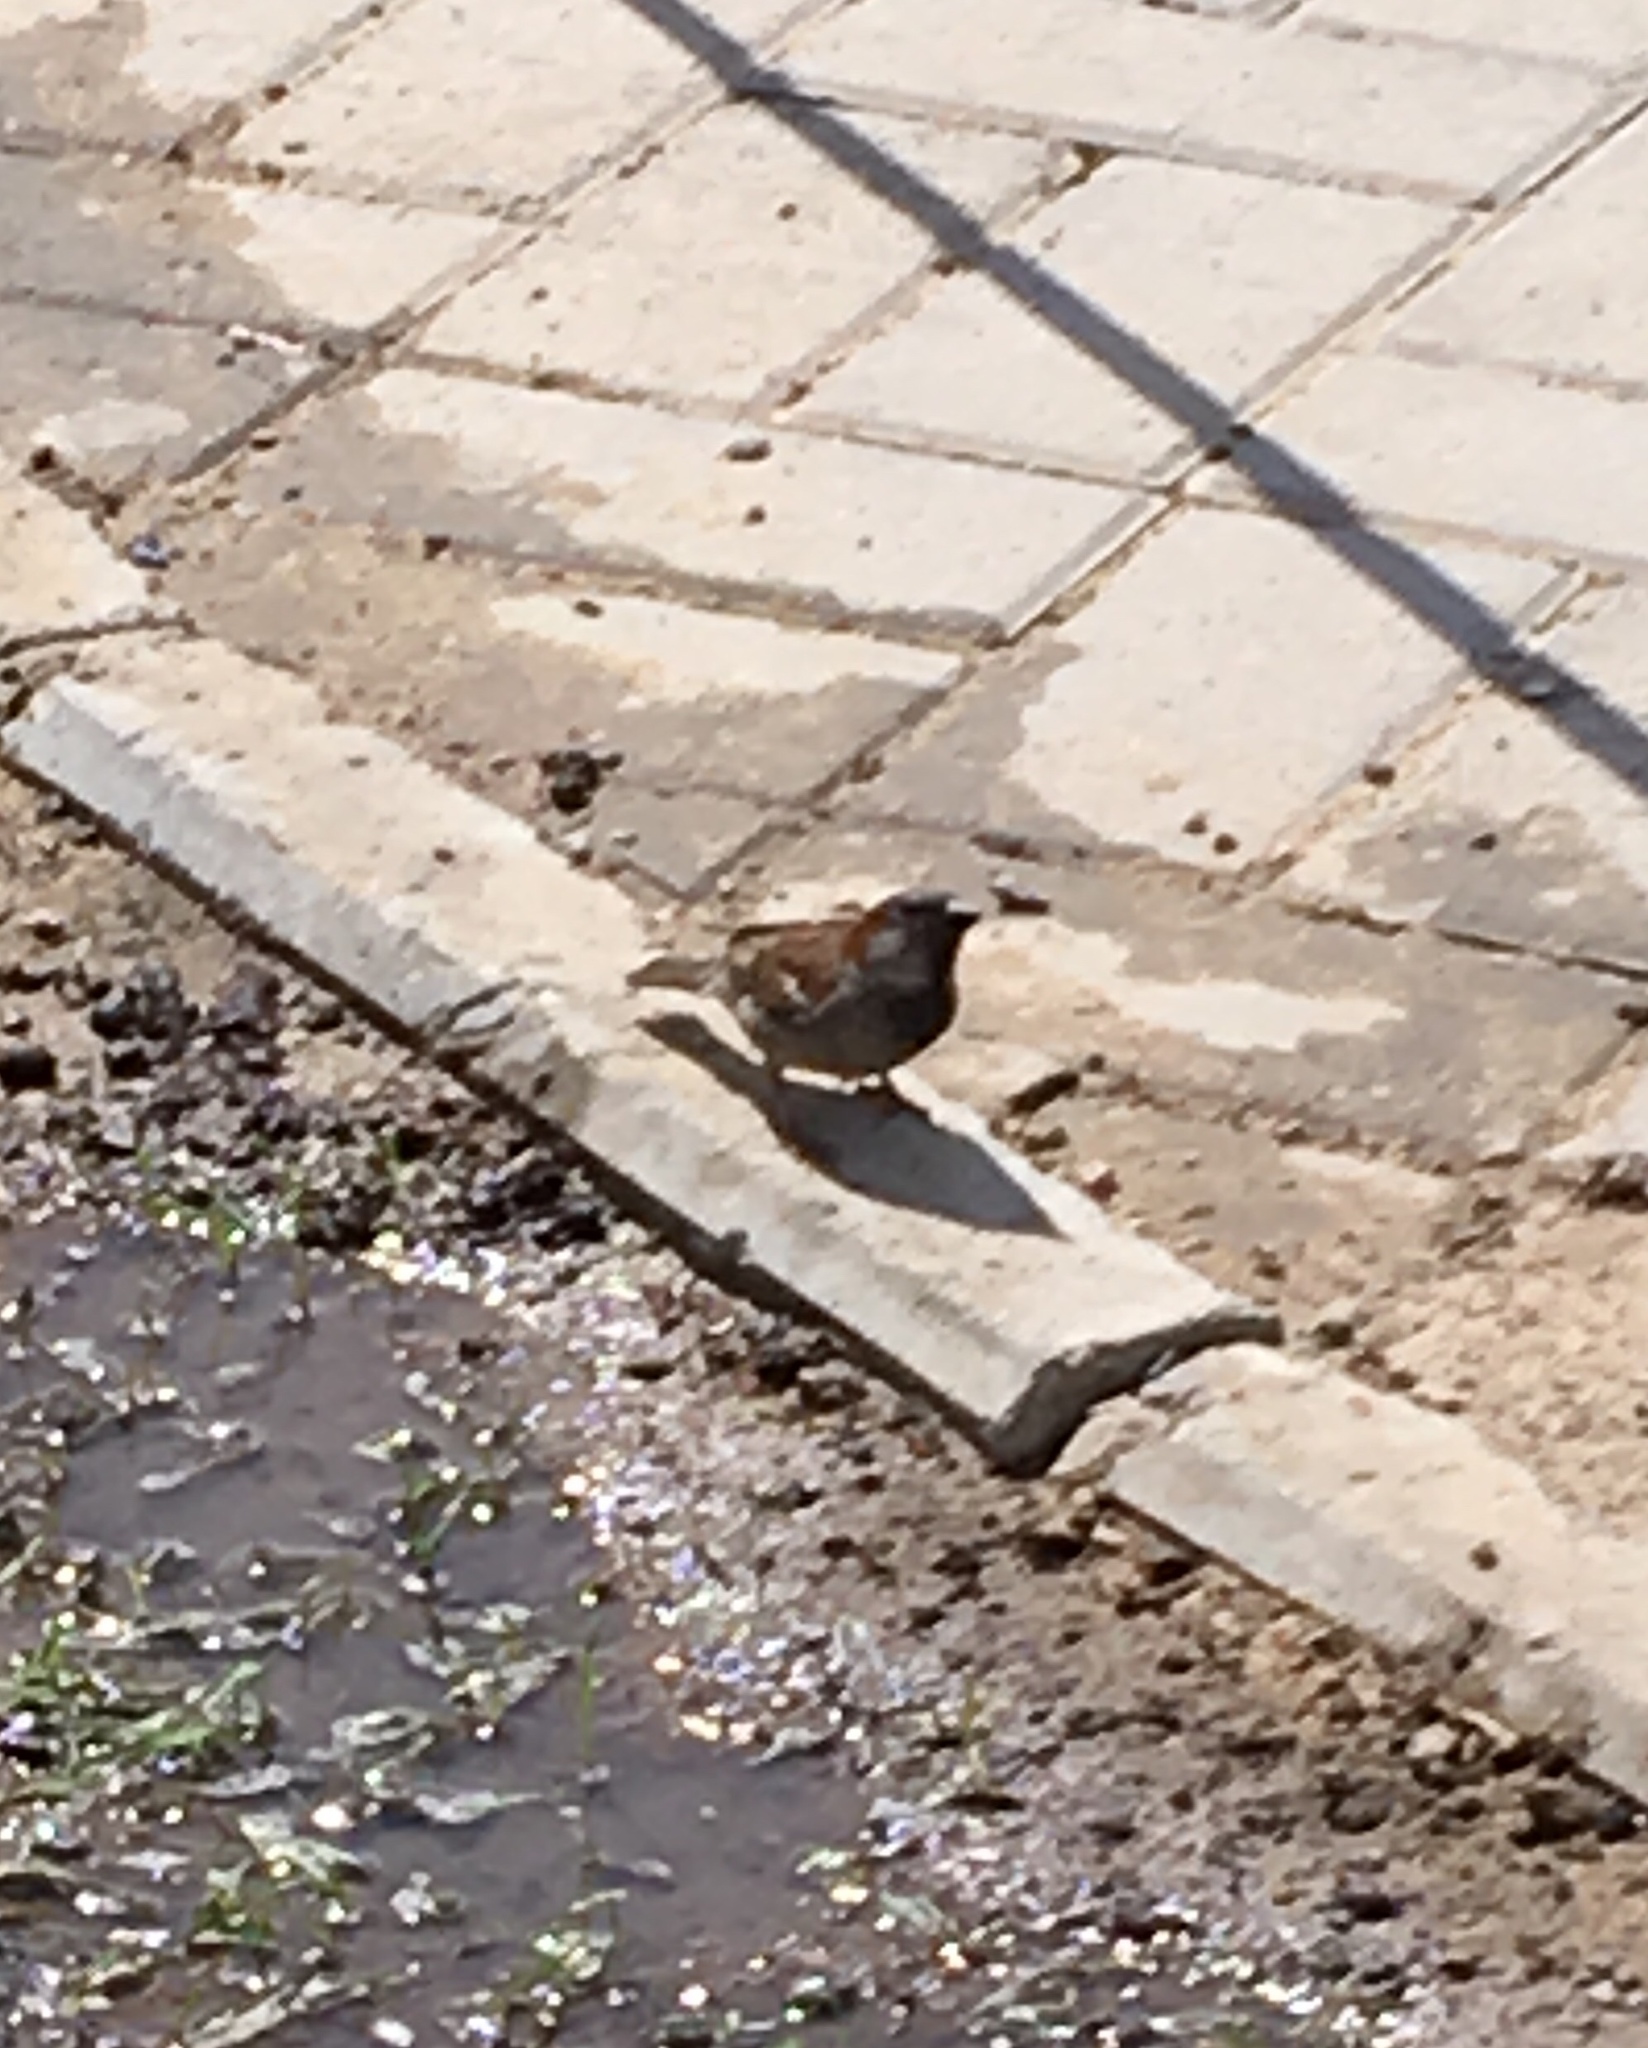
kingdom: Animalia
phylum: Chordata
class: Aves
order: Passeriformes
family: Passeridae
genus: Passer
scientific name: Passer domesticus
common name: House sparrow
